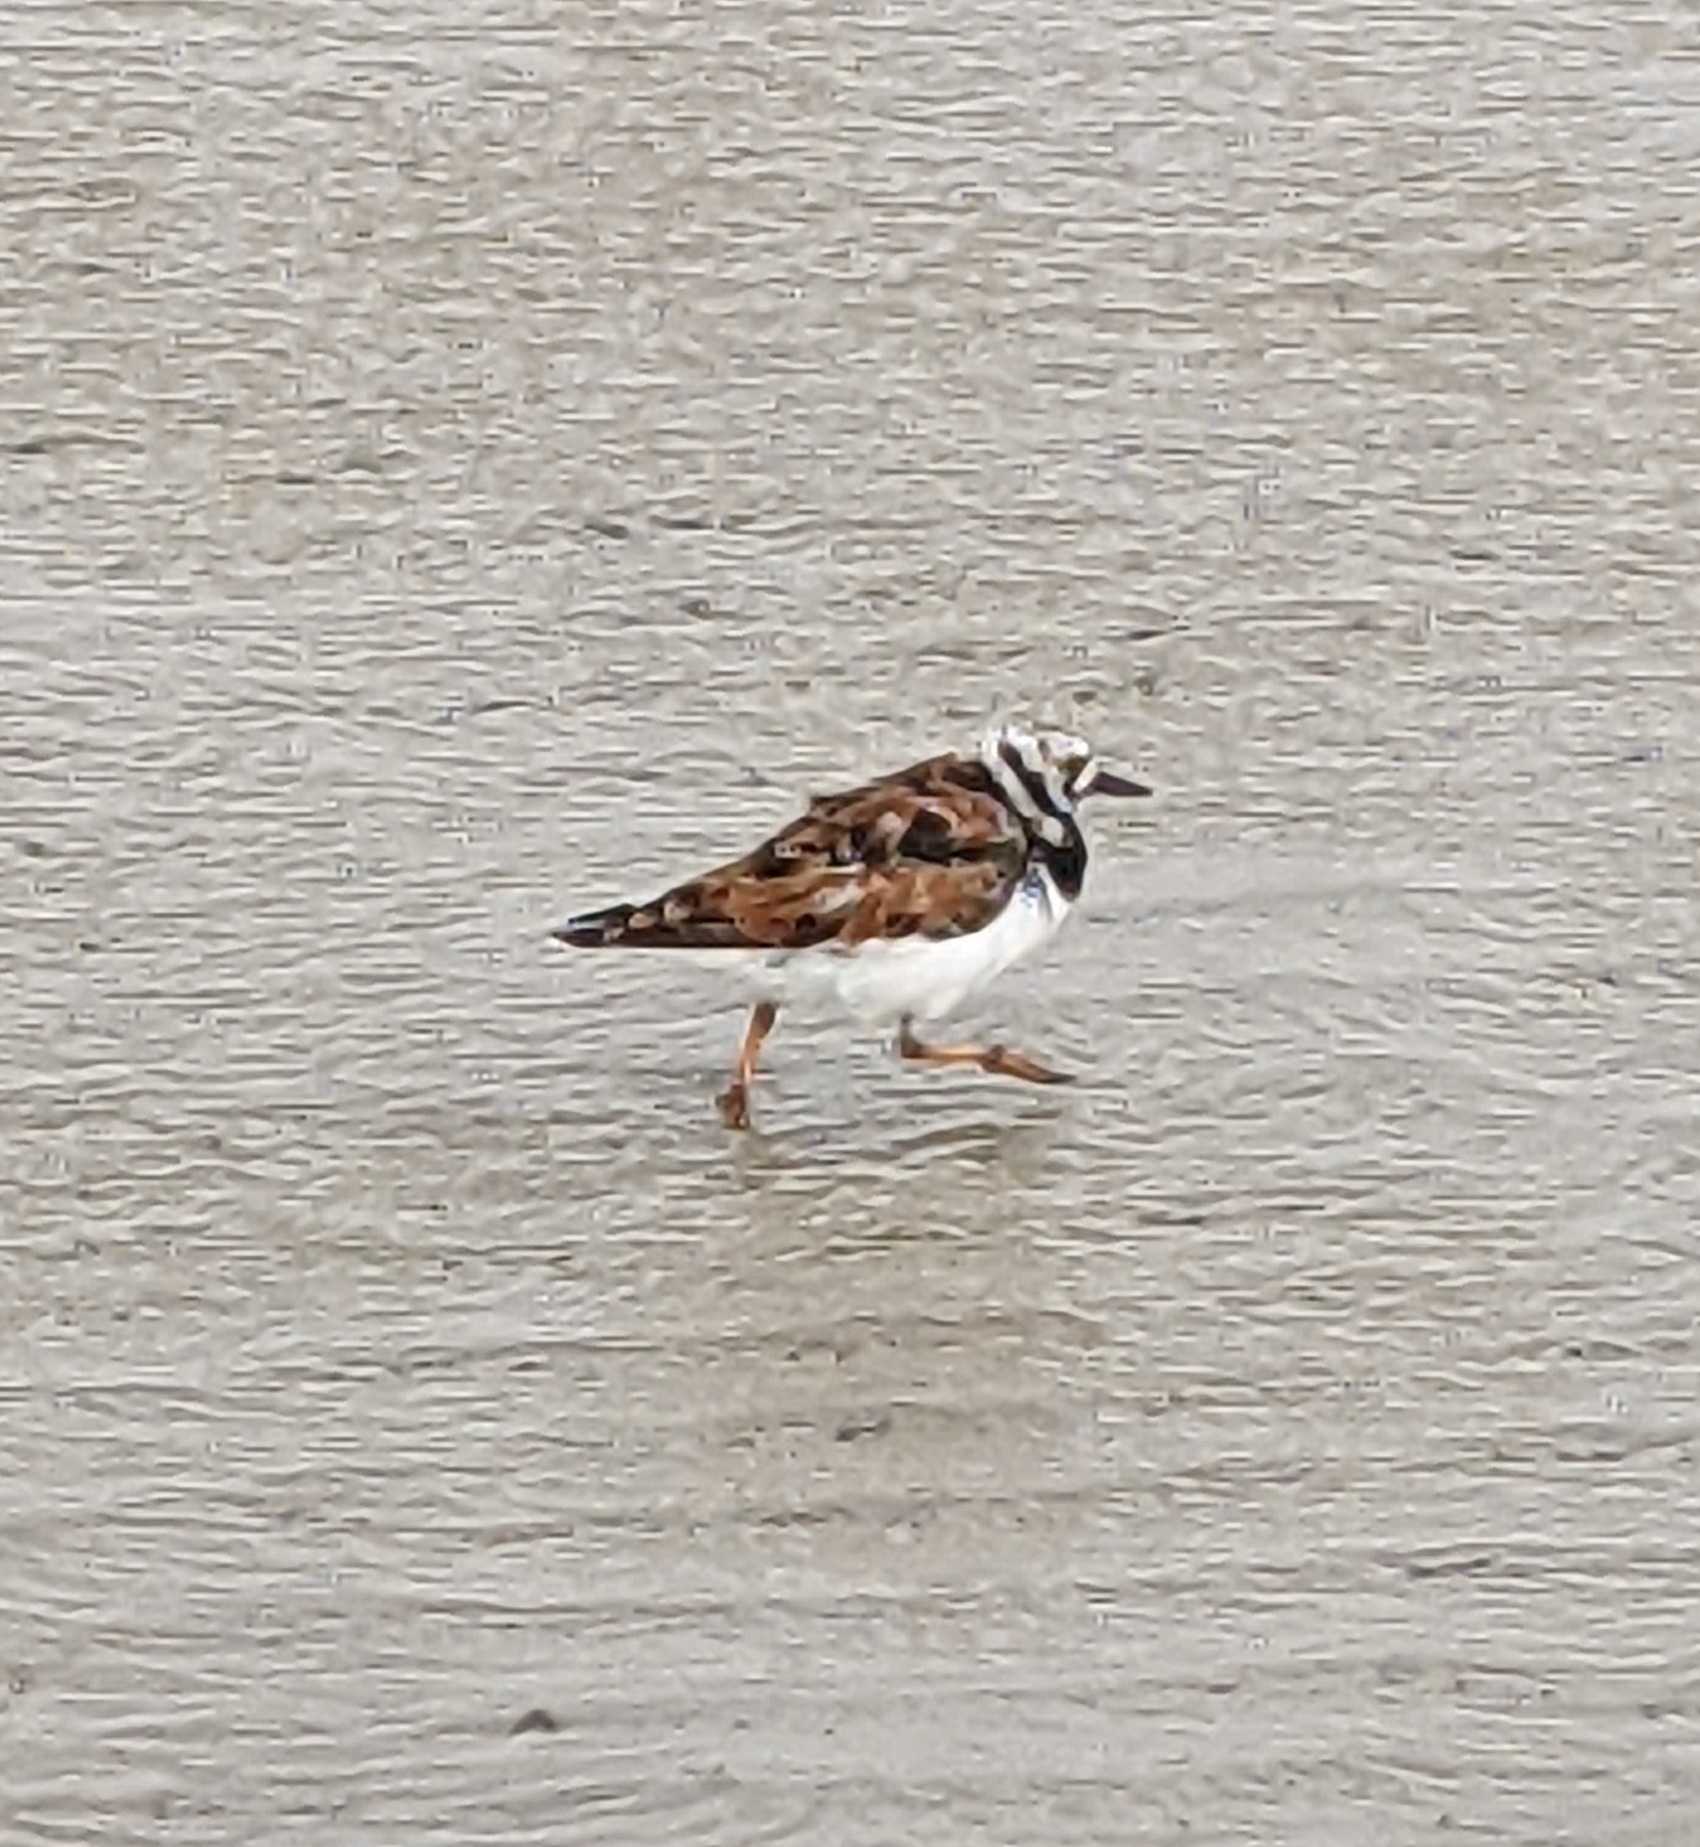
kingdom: Animalia
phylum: Chordata
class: Aves
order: Charadriiformes
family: Scolopacidae
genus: Arenaria
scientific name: Arenaria interpres
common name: Ruddy turnstone
